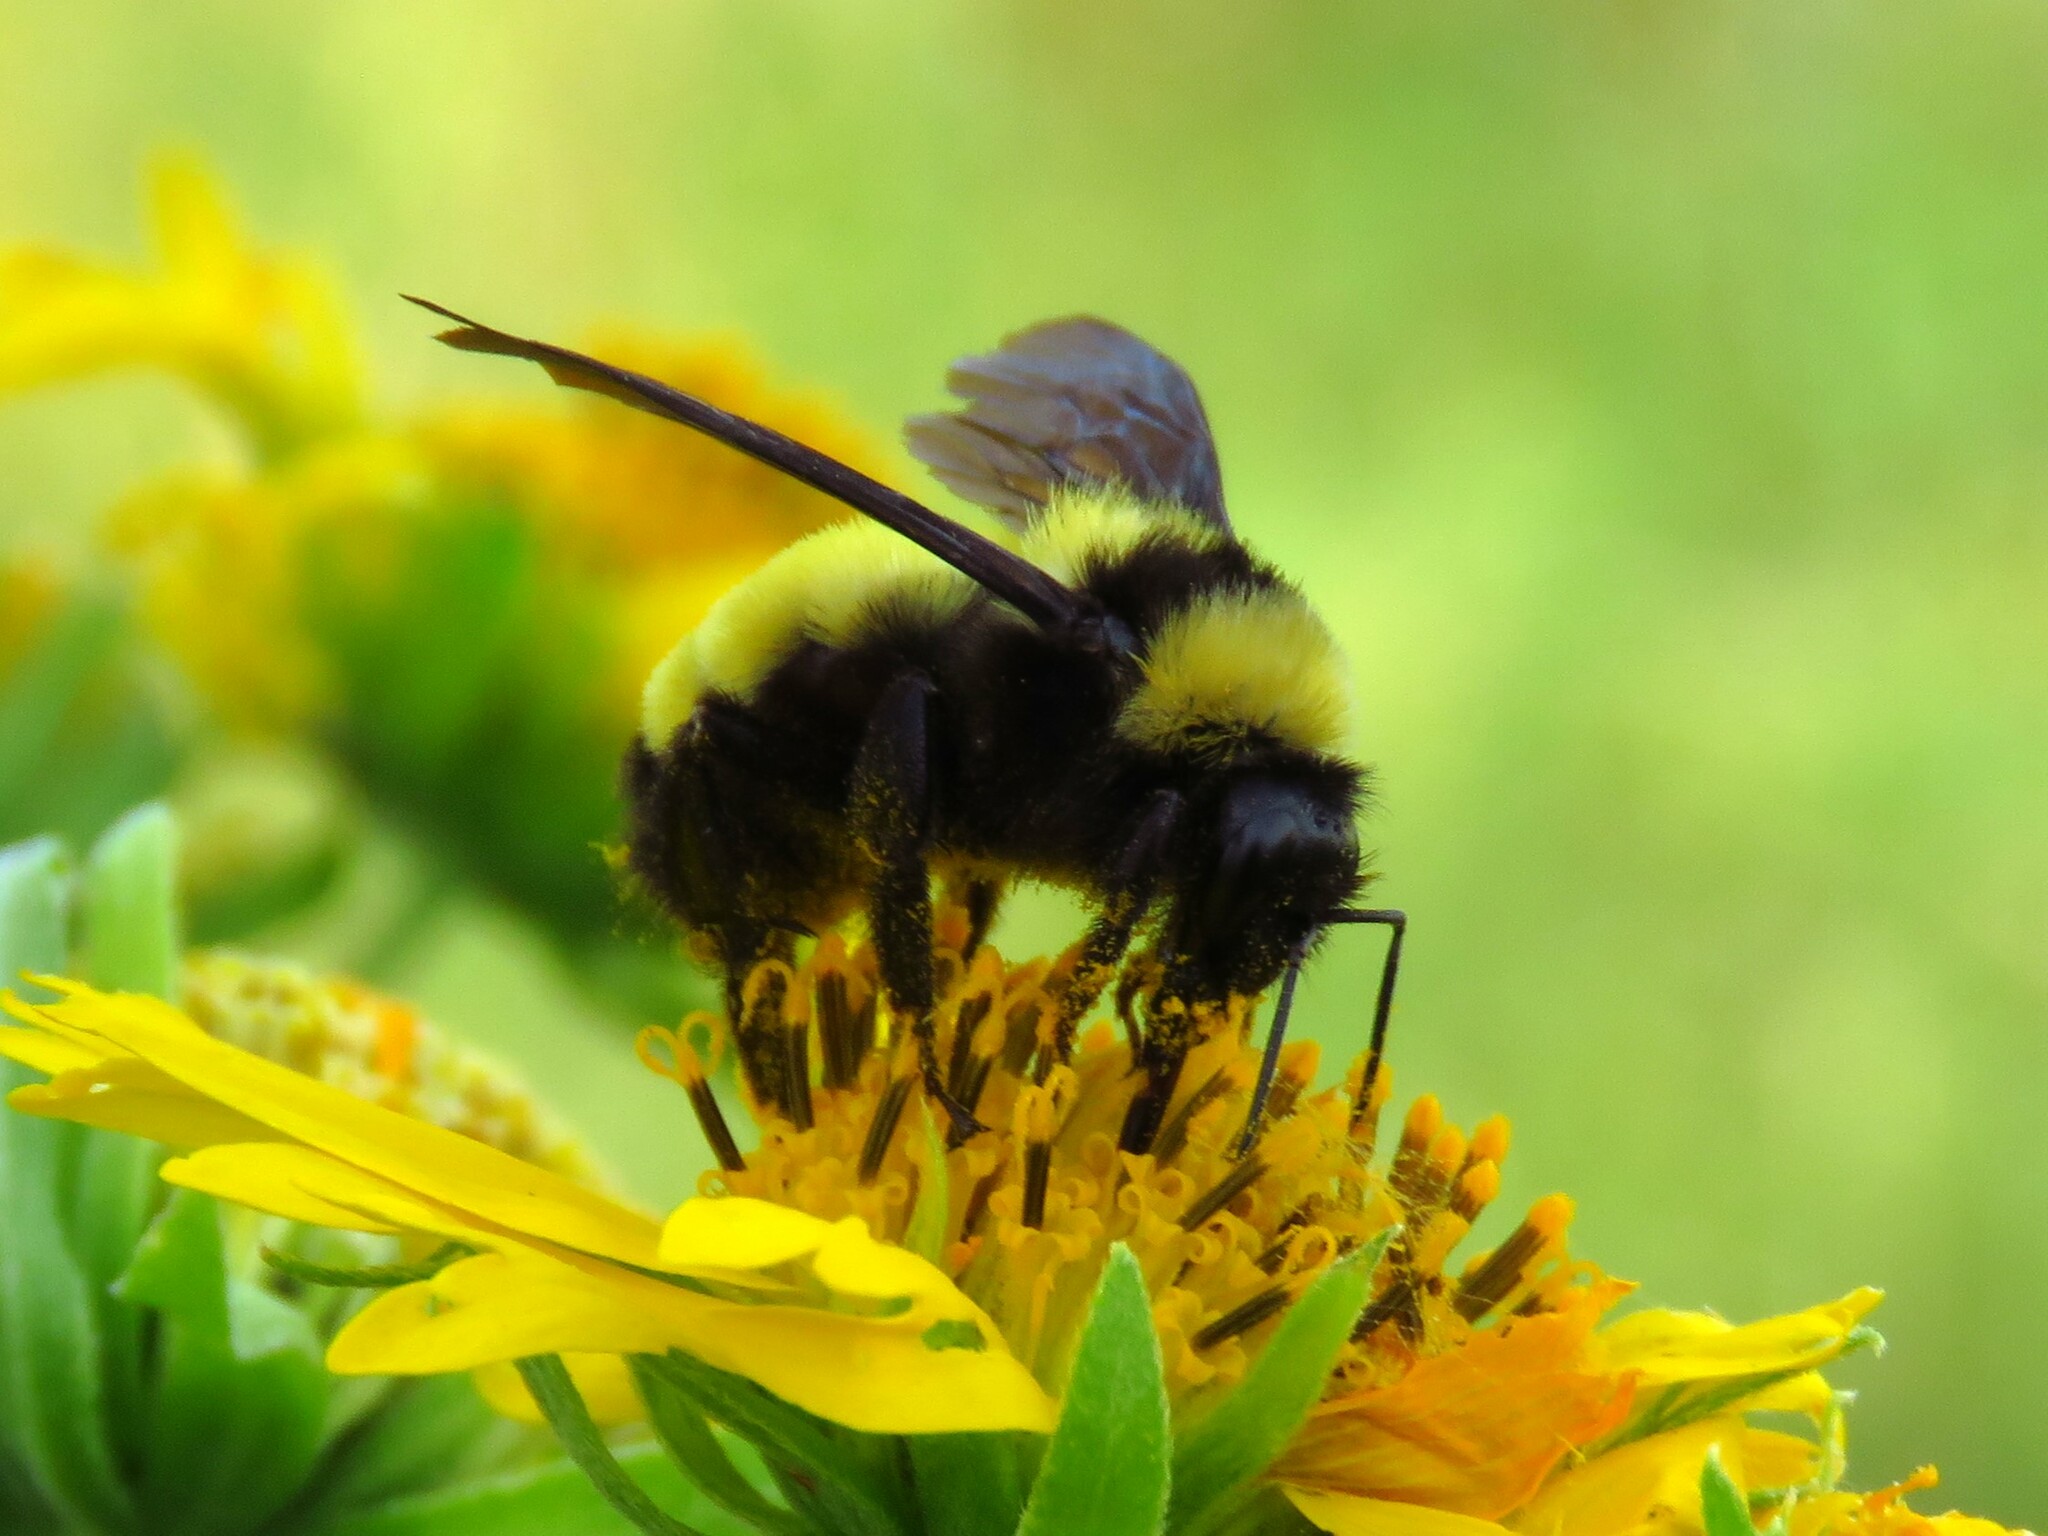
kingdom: Animalia
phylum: Arthropoda
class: Insecta
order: Hymenoptera
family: Apidae
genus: Bombus
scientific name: Bombus sonorus
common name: Sonoran bumble bee
